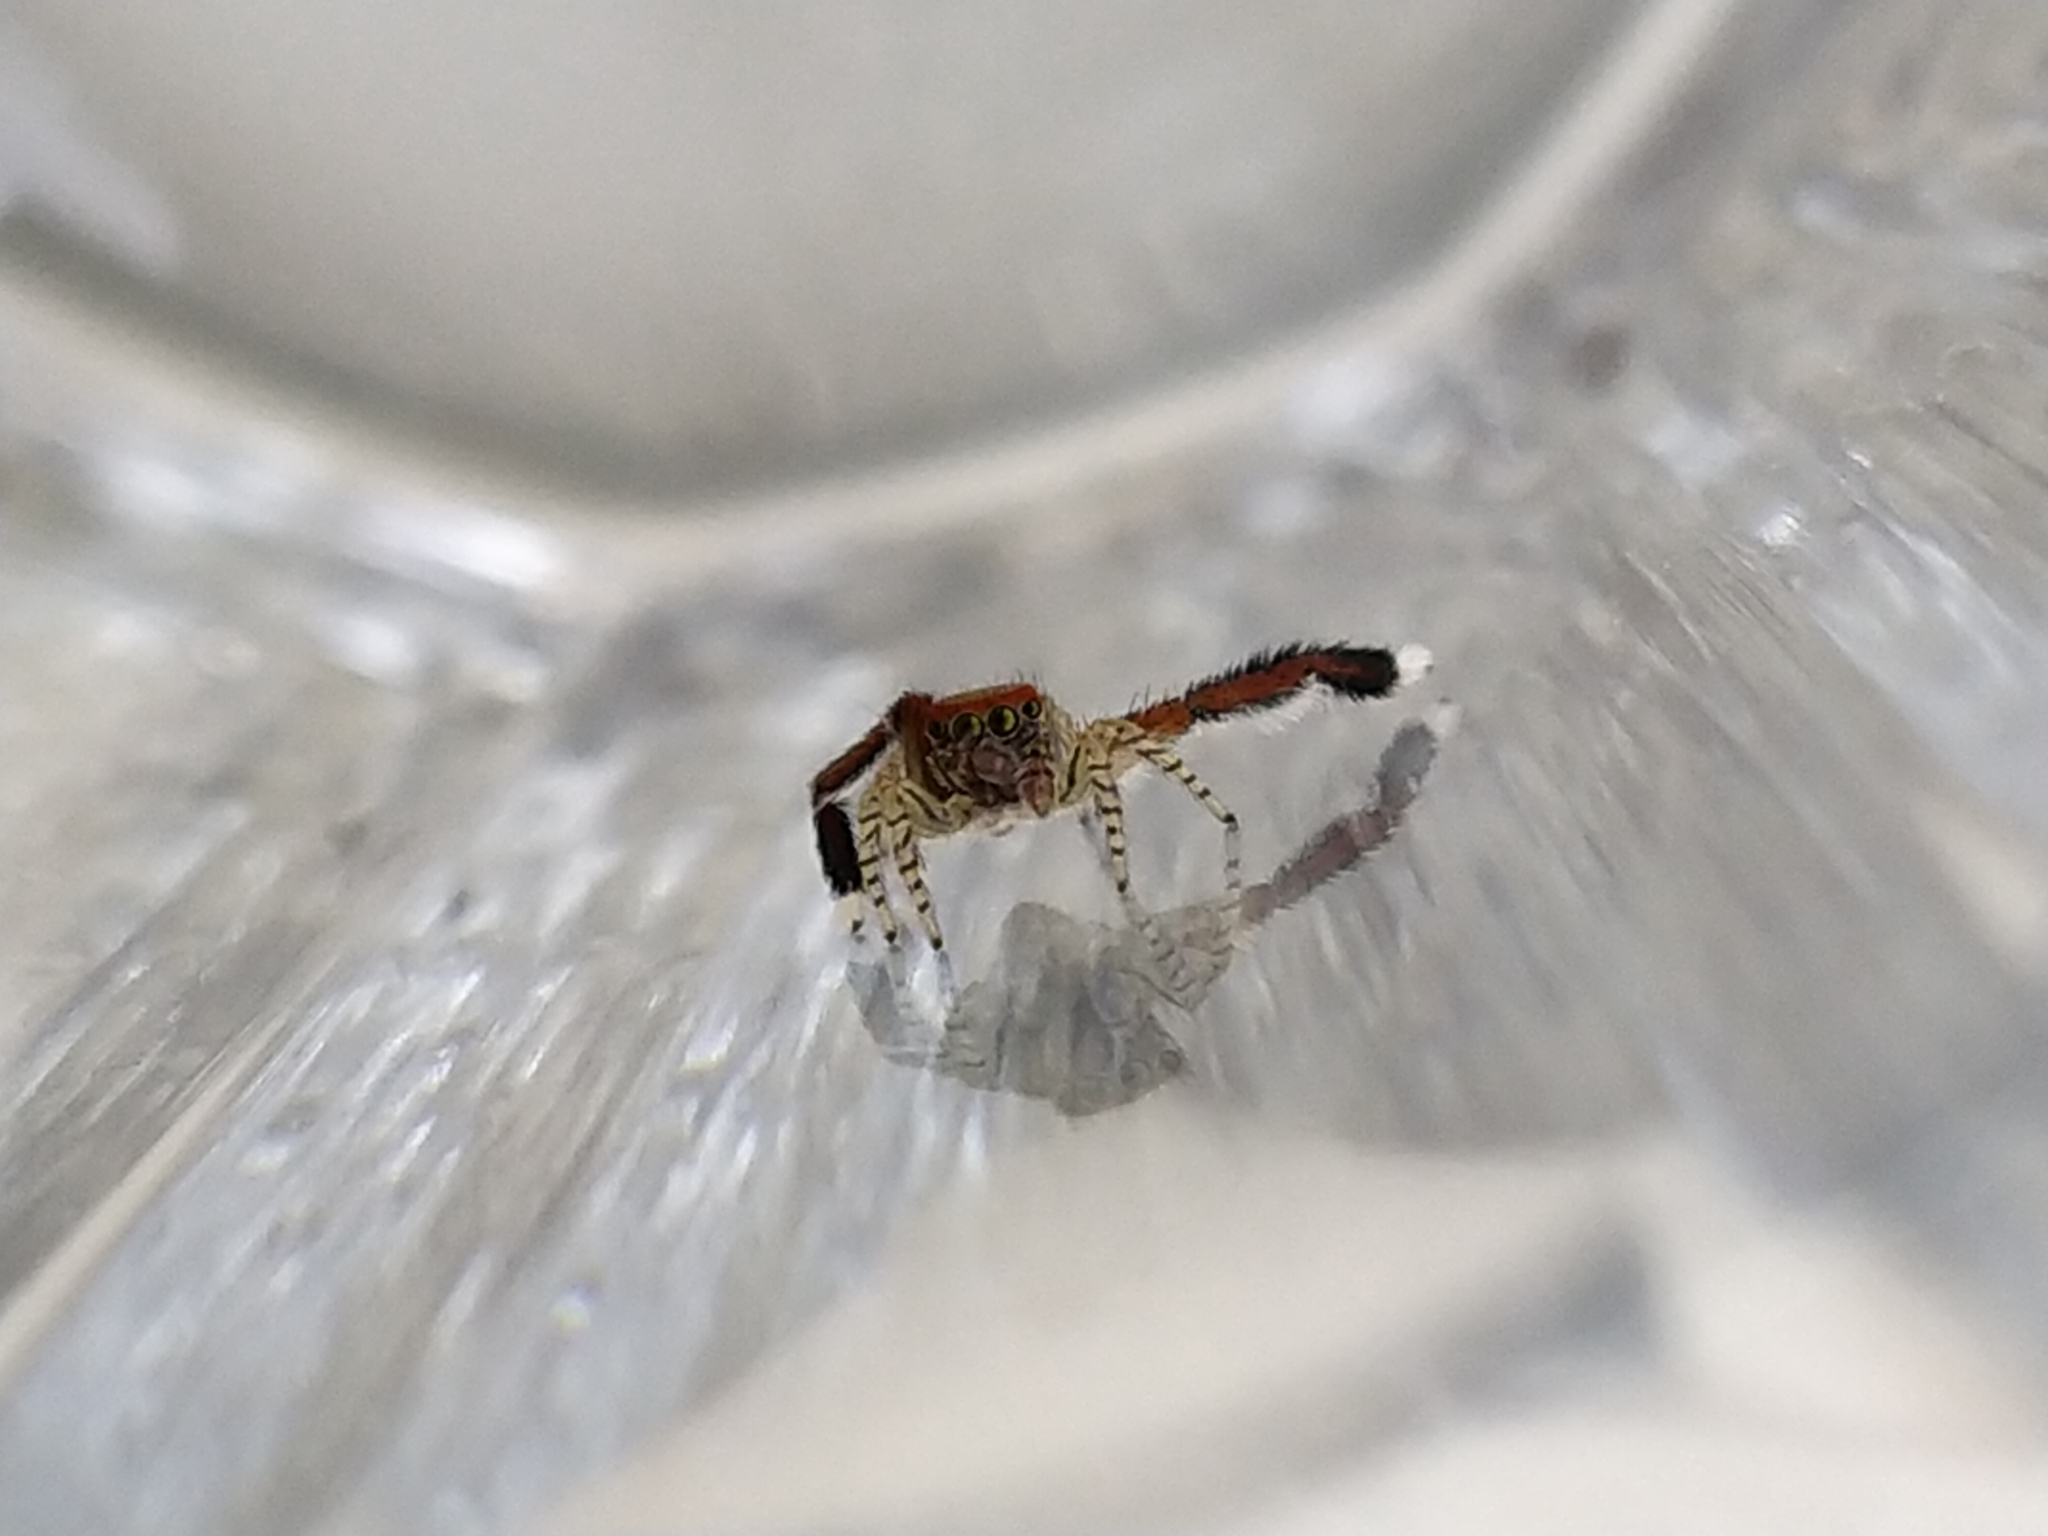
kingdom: Animalia
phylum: Arthropoda
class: Arachnida
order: Araneae
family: Salticidae
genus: Saitis
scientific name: Saitis barbipes
